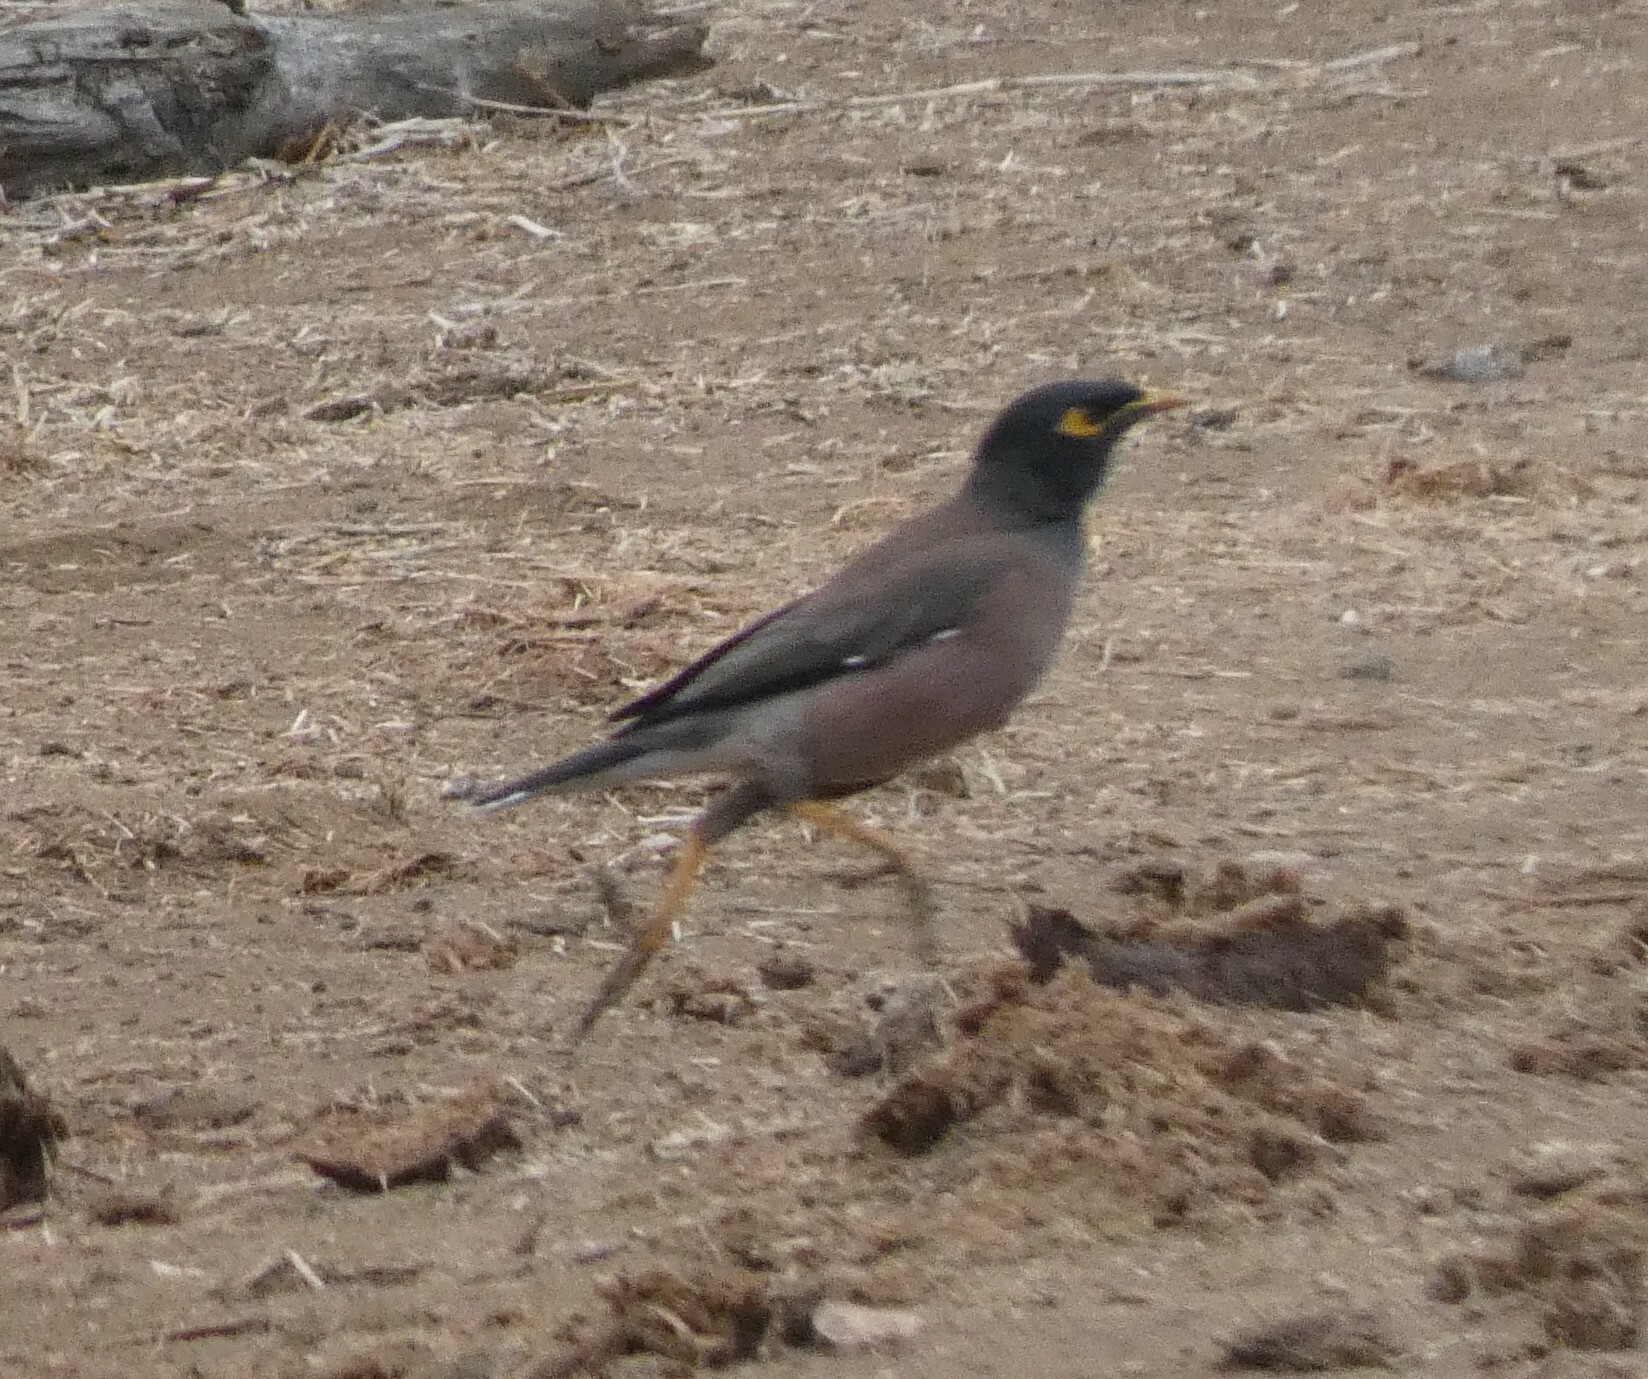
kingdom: Animalia
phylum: Chordata
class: Aves
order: Passeriformes
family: Sturnidae
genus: Acridotheres
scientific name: Acridotheres tristis
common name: Common myna
